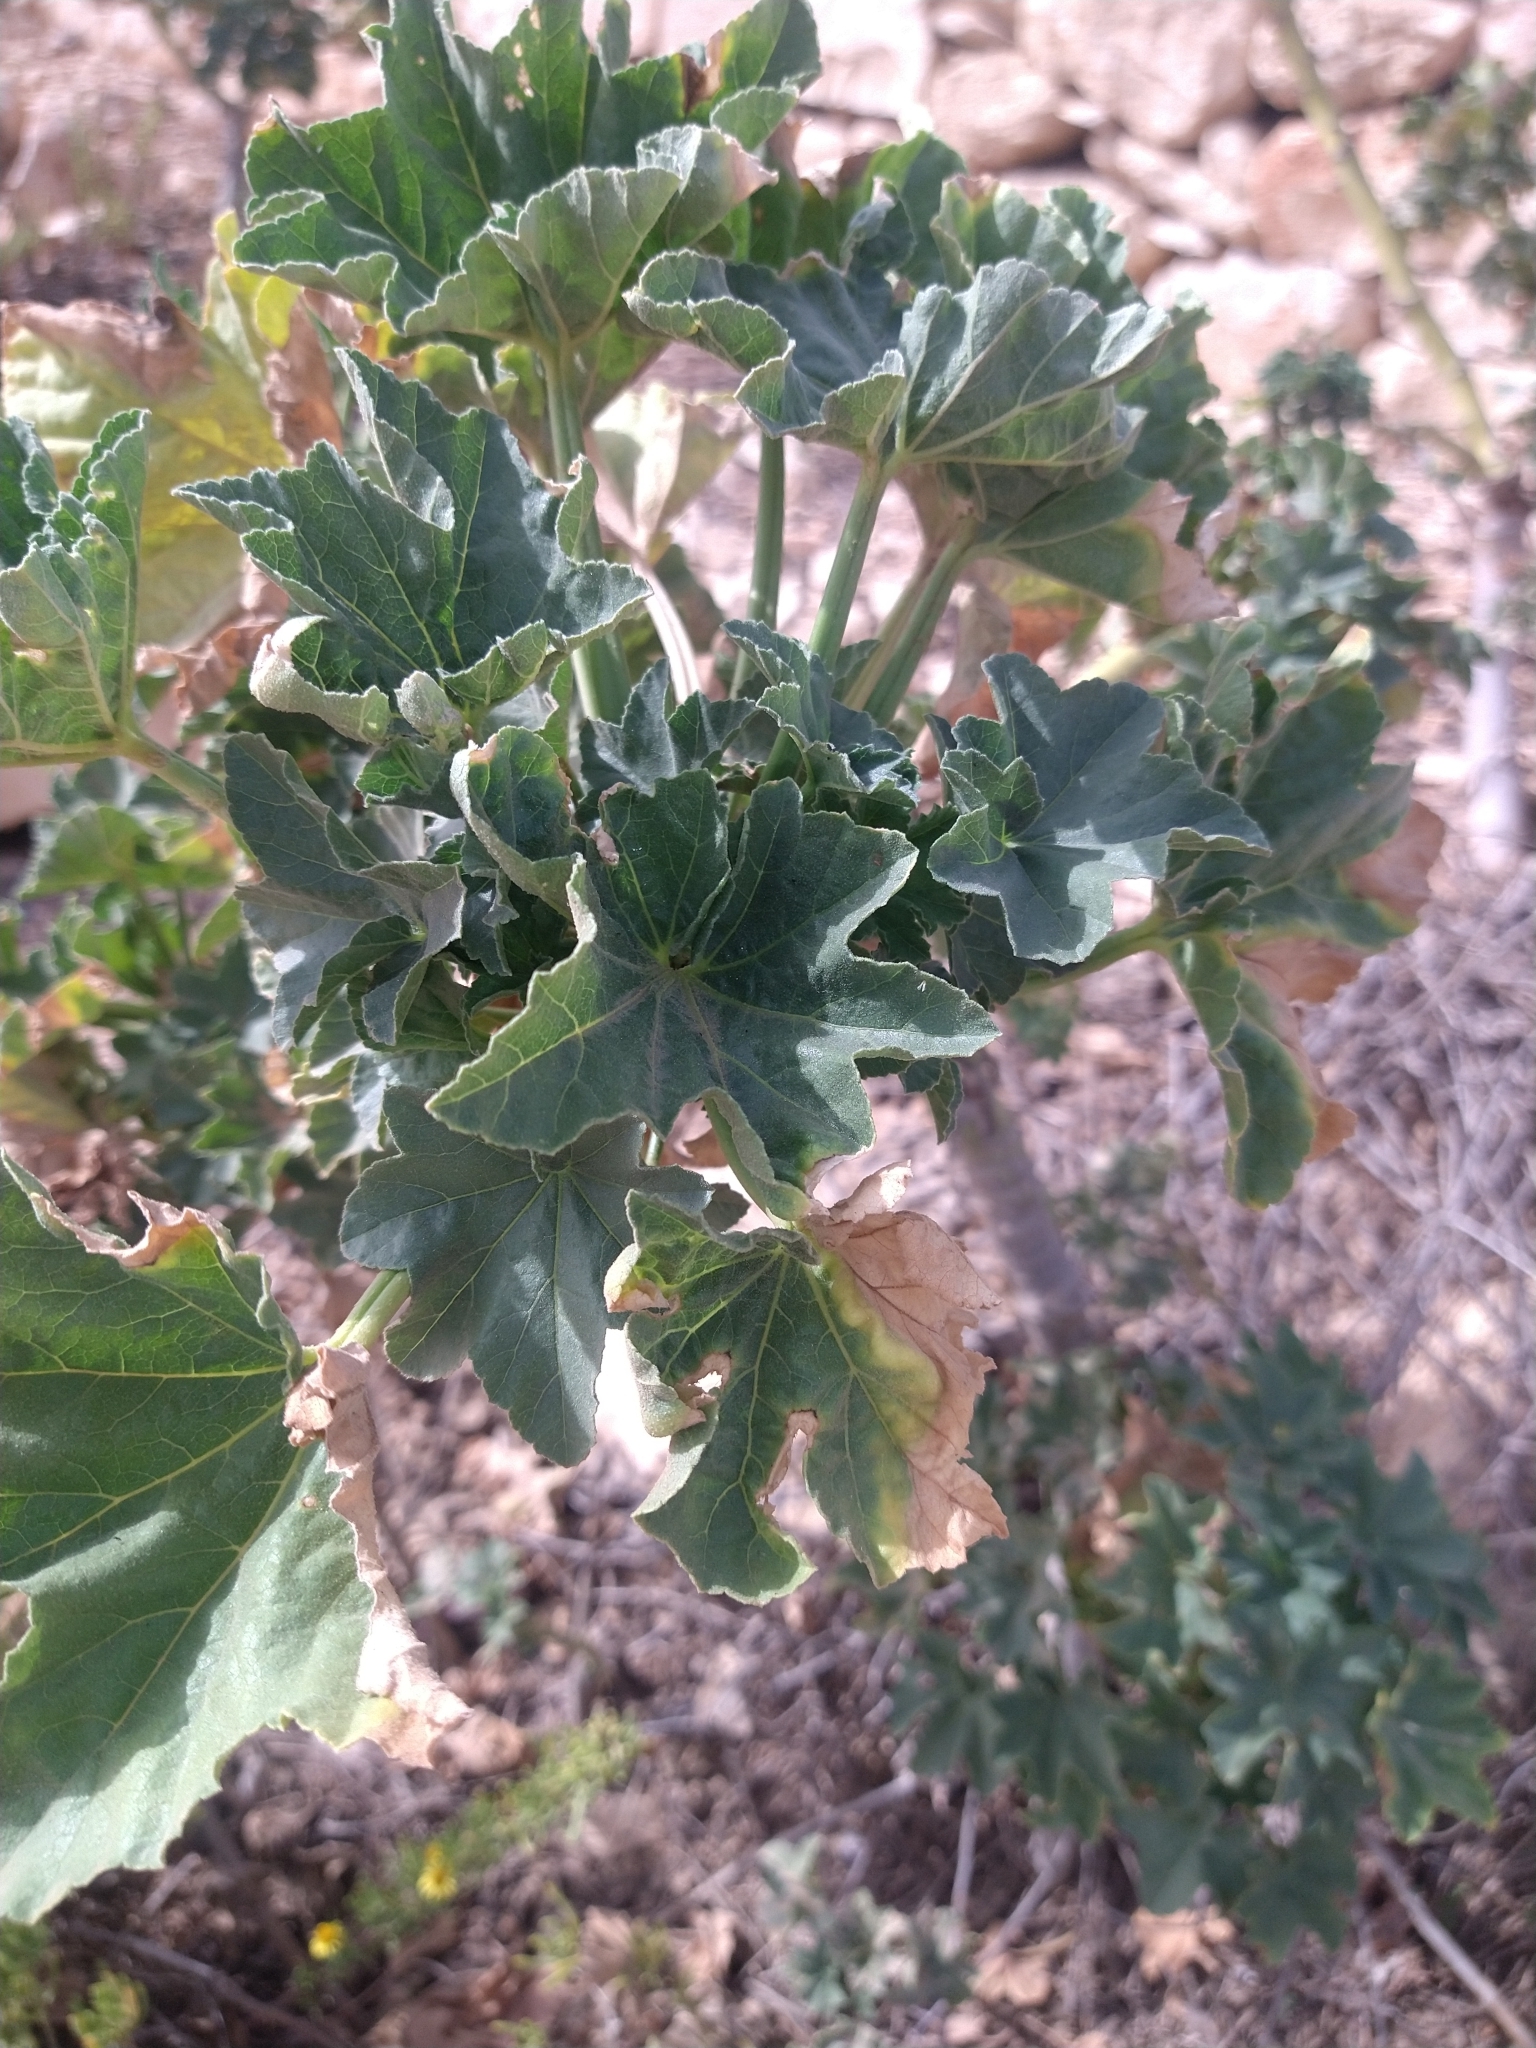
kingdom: Plantae
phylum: Tracheophyta
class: Magnoliopsida
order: Malvales
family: Malvaceae
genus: Malva
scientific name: Malva arborea
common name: Tree mallow
